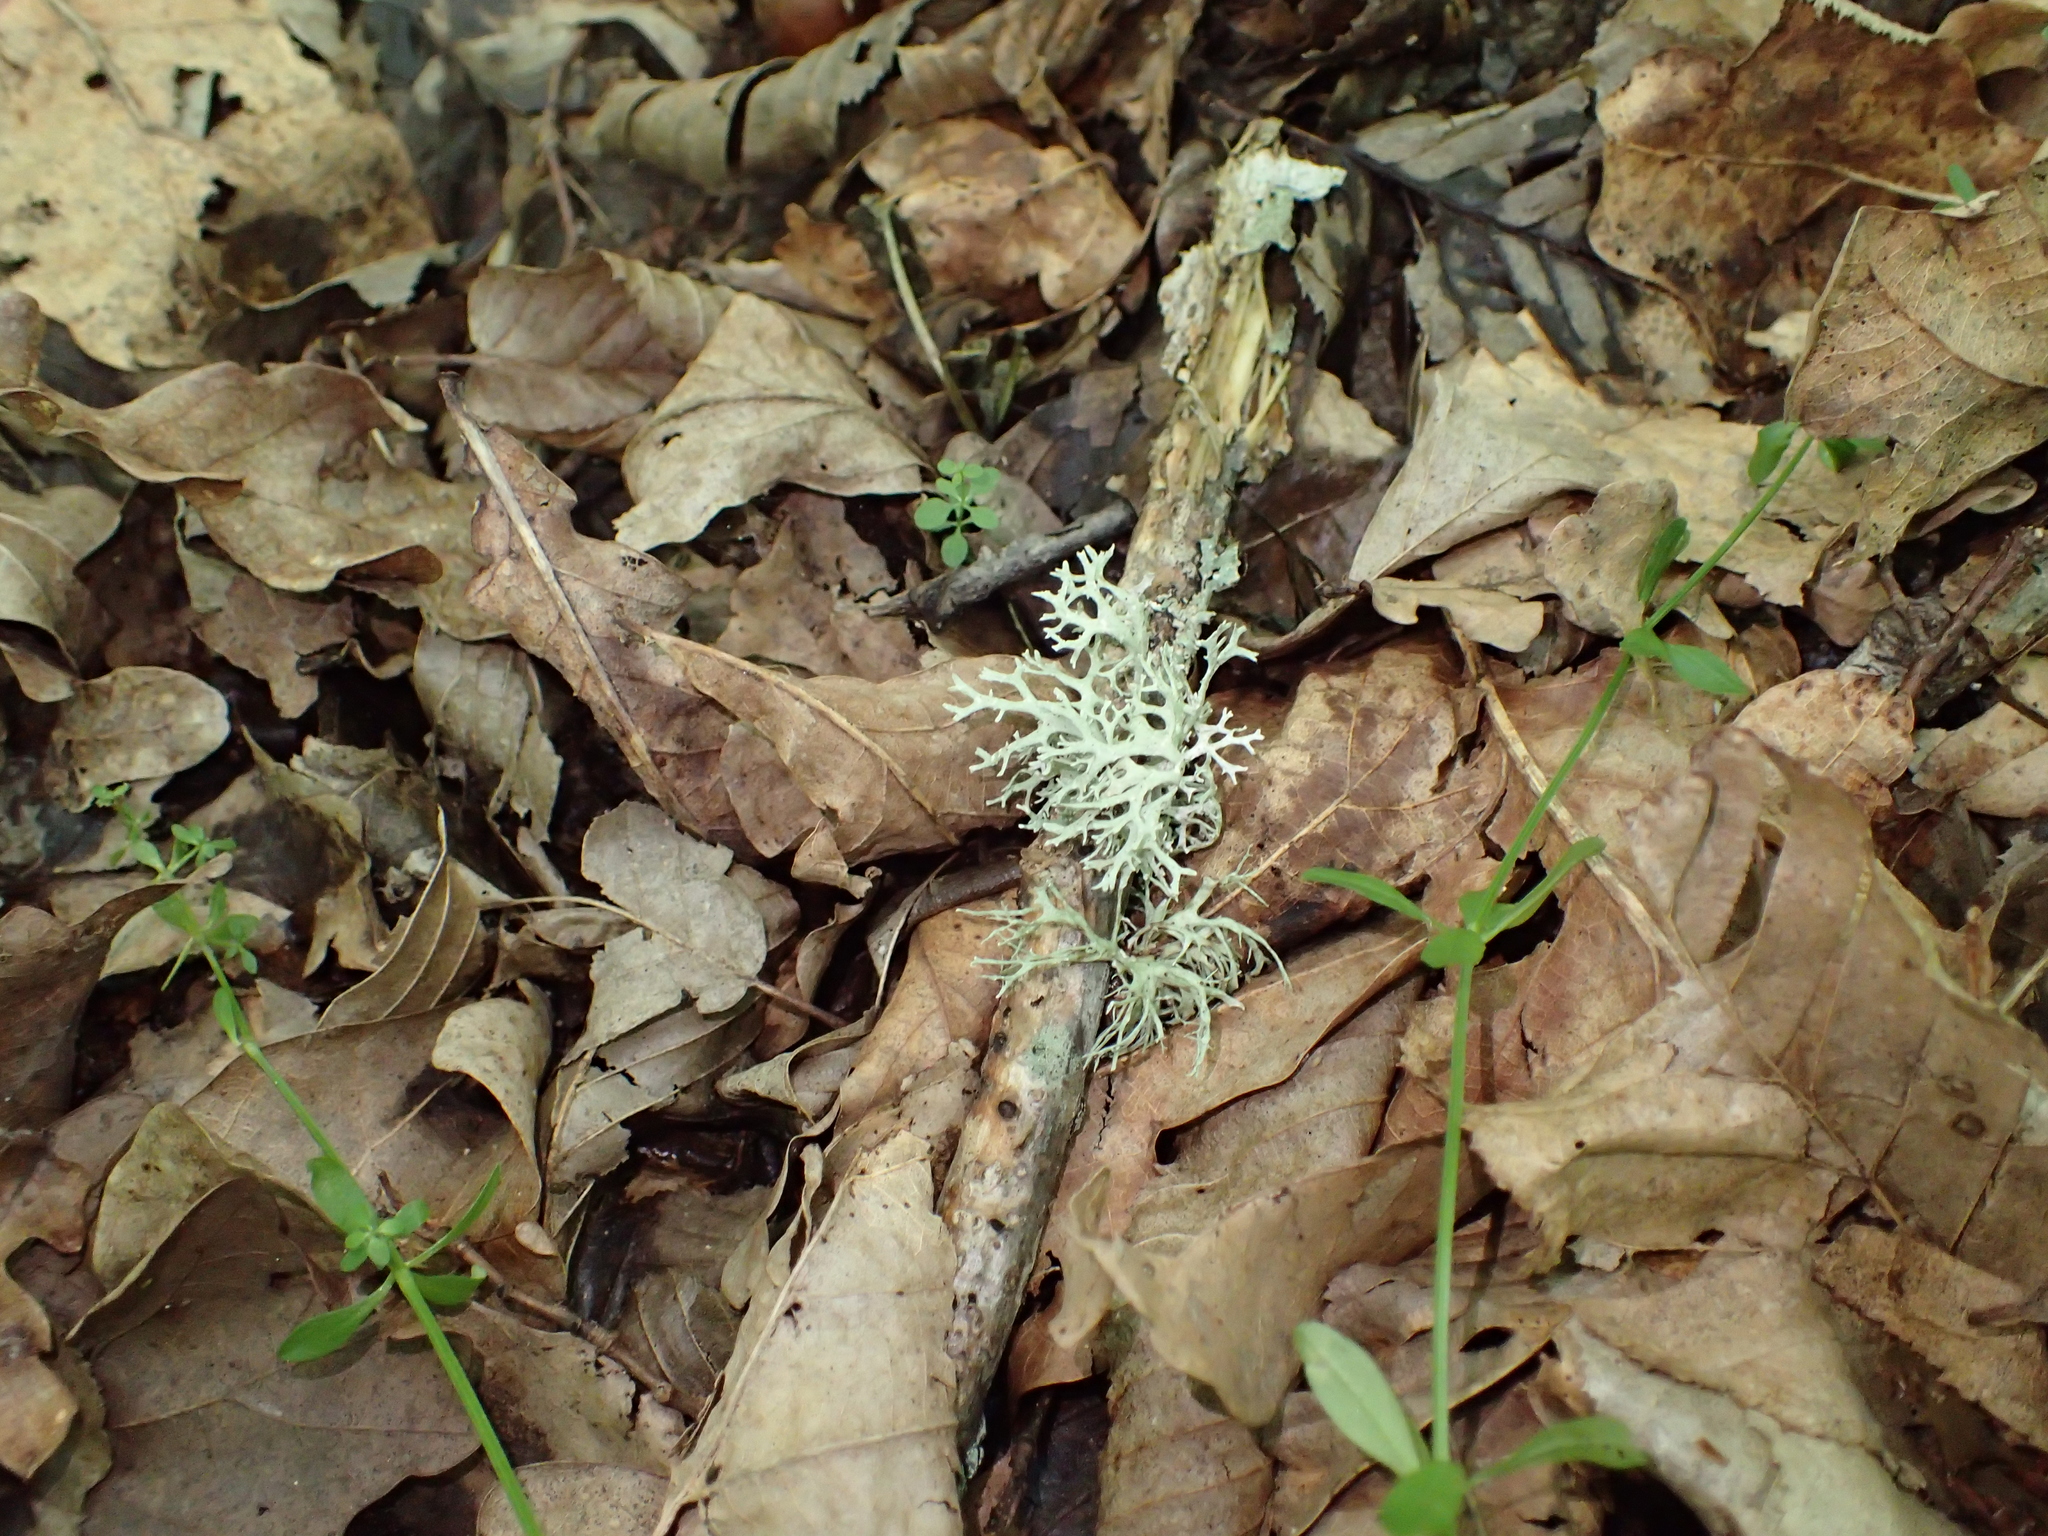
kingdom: Fungi
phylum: Ascomycota
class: Lecanoromycetes
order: Lecanorales
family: Parmeliaceae
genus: Evernia
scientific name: Evernia prunastri
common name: Oak moss
